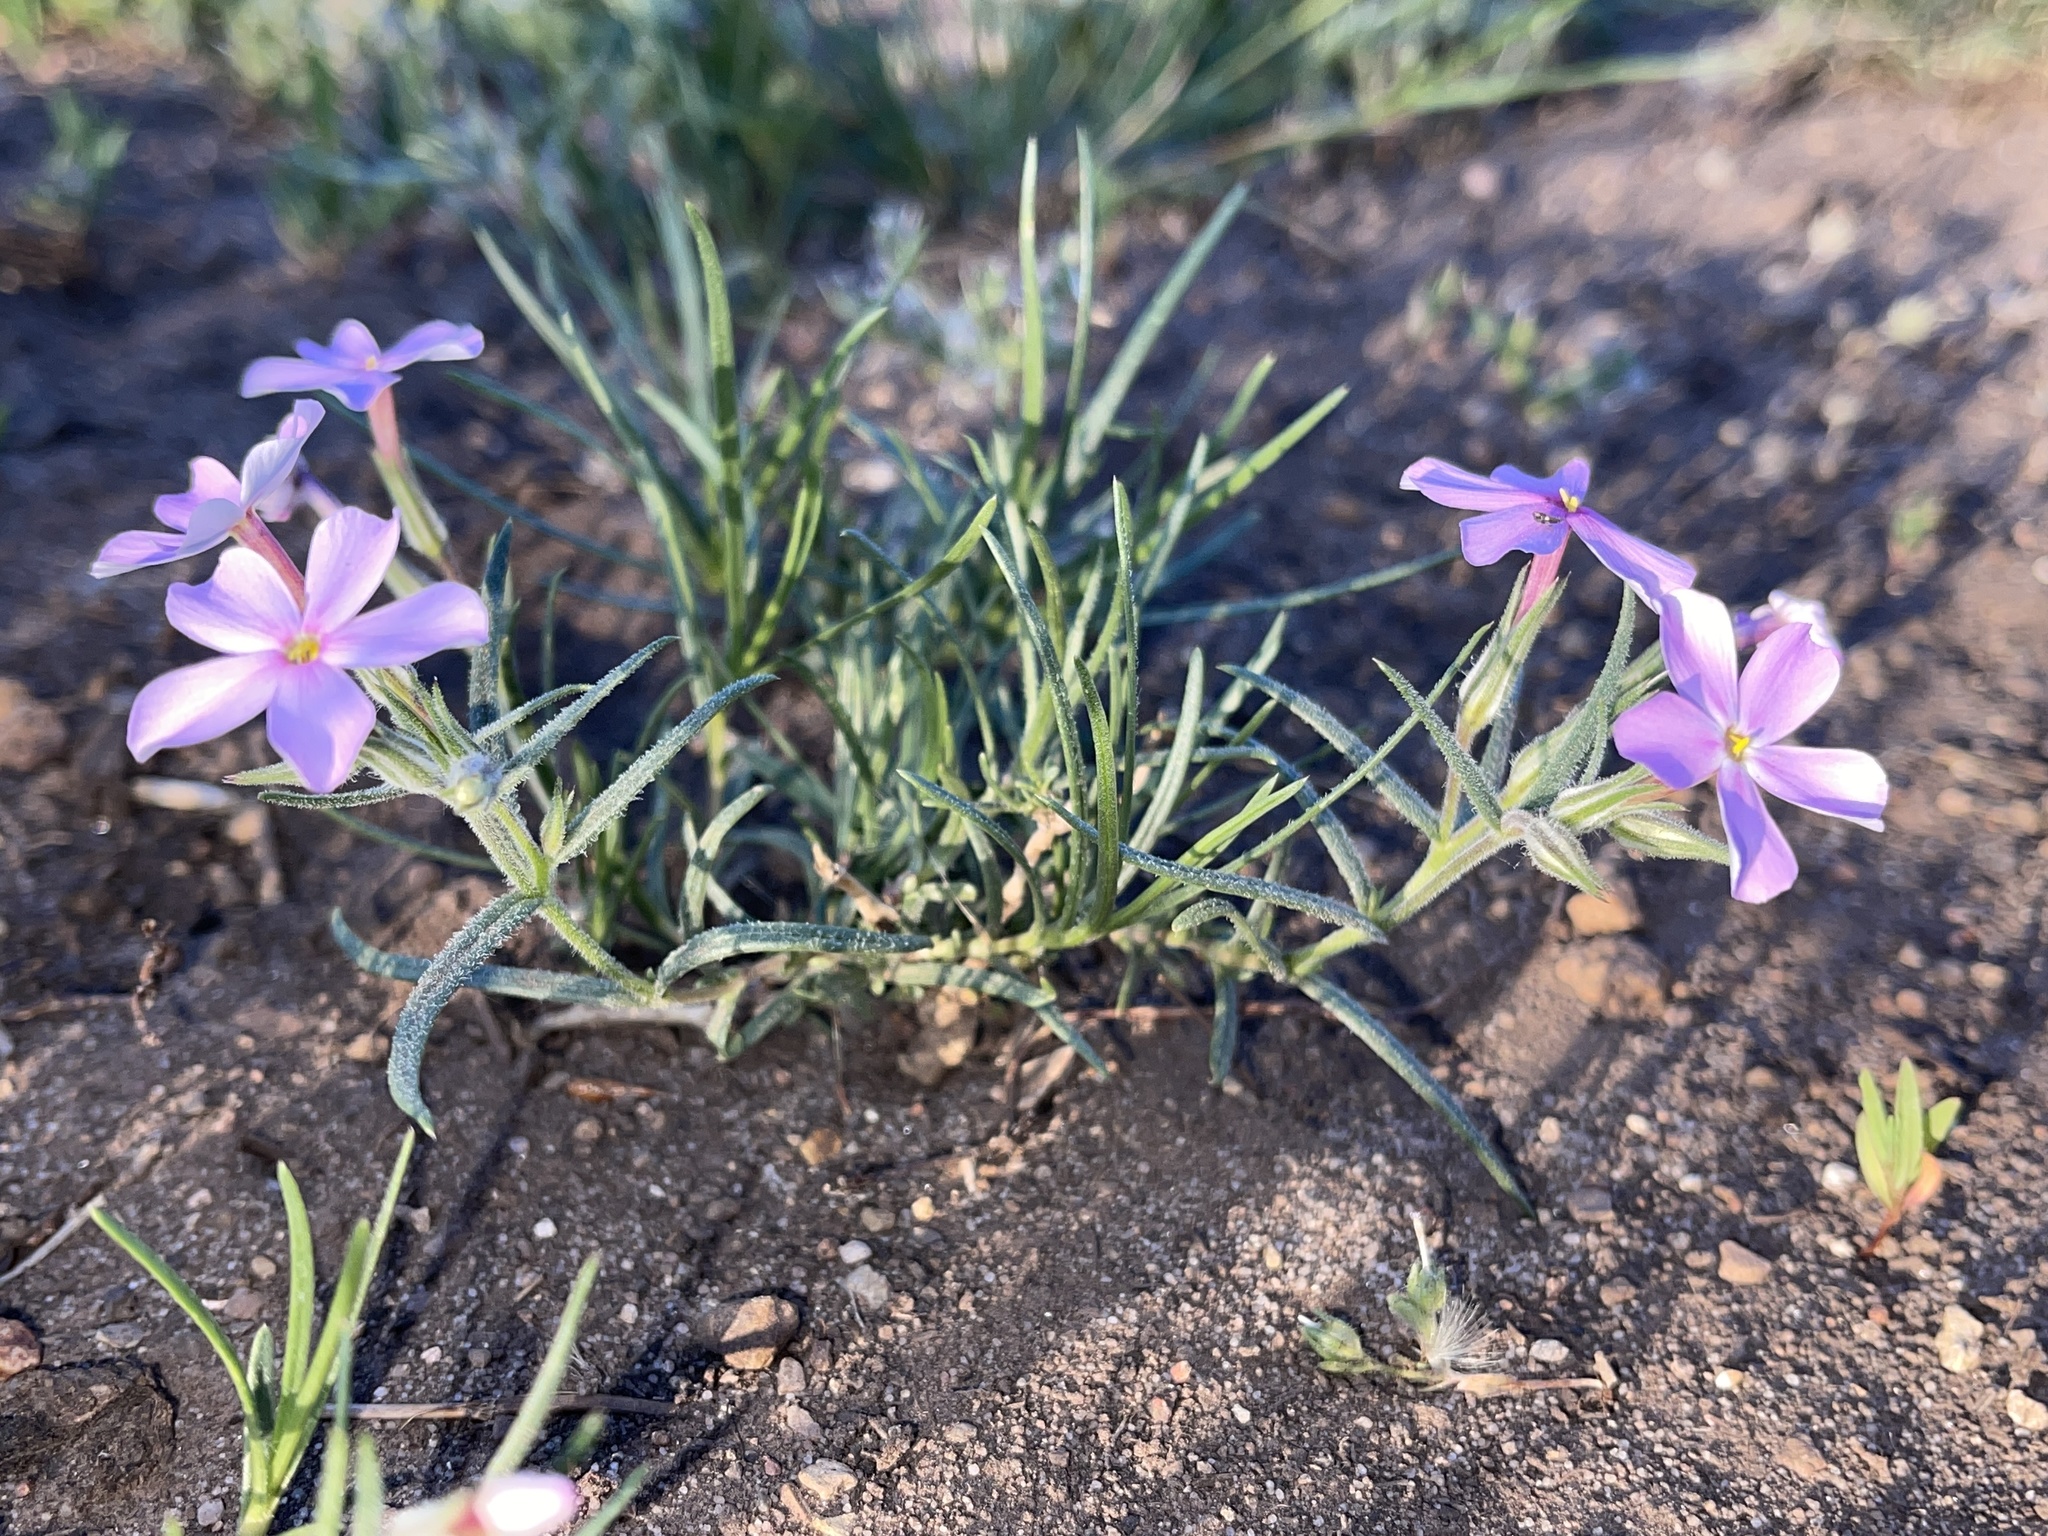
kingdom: Plantae
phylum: Tracheophyta
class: Magnoliopsida
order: Ericales
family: Polemoniaceae
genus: Phlox
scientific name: Phlox longifolia
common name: Longleaf phlox
